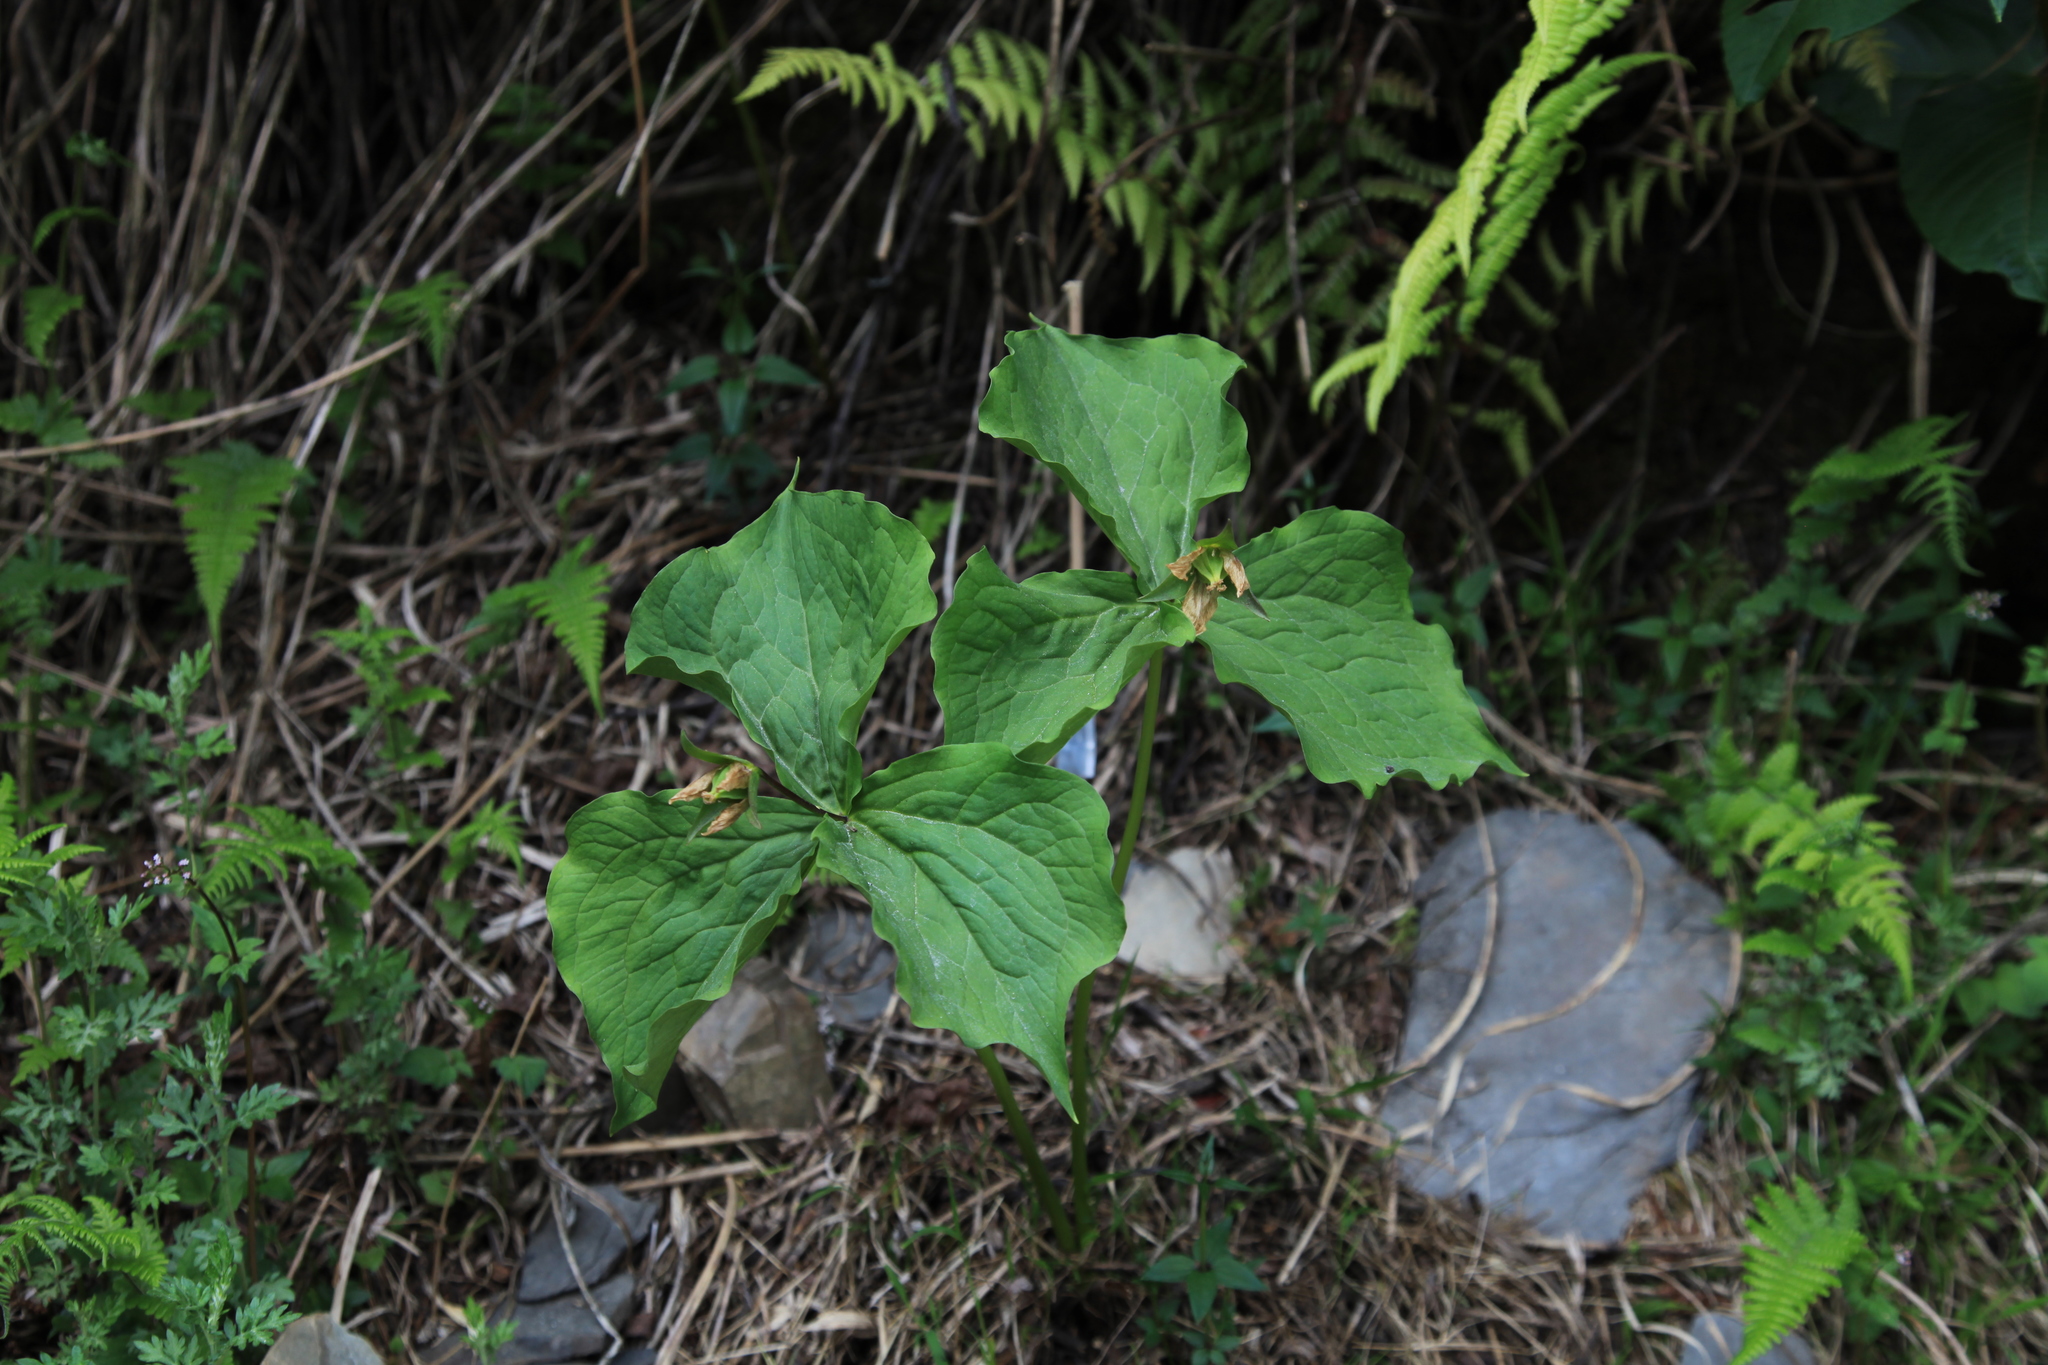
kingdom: Plantae
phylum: Tracheophyta
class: Liliopsida
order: Liliales
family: Melanthiaceae
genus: Trillium
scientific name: Trillium tschonoskii
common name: A pearl on head
